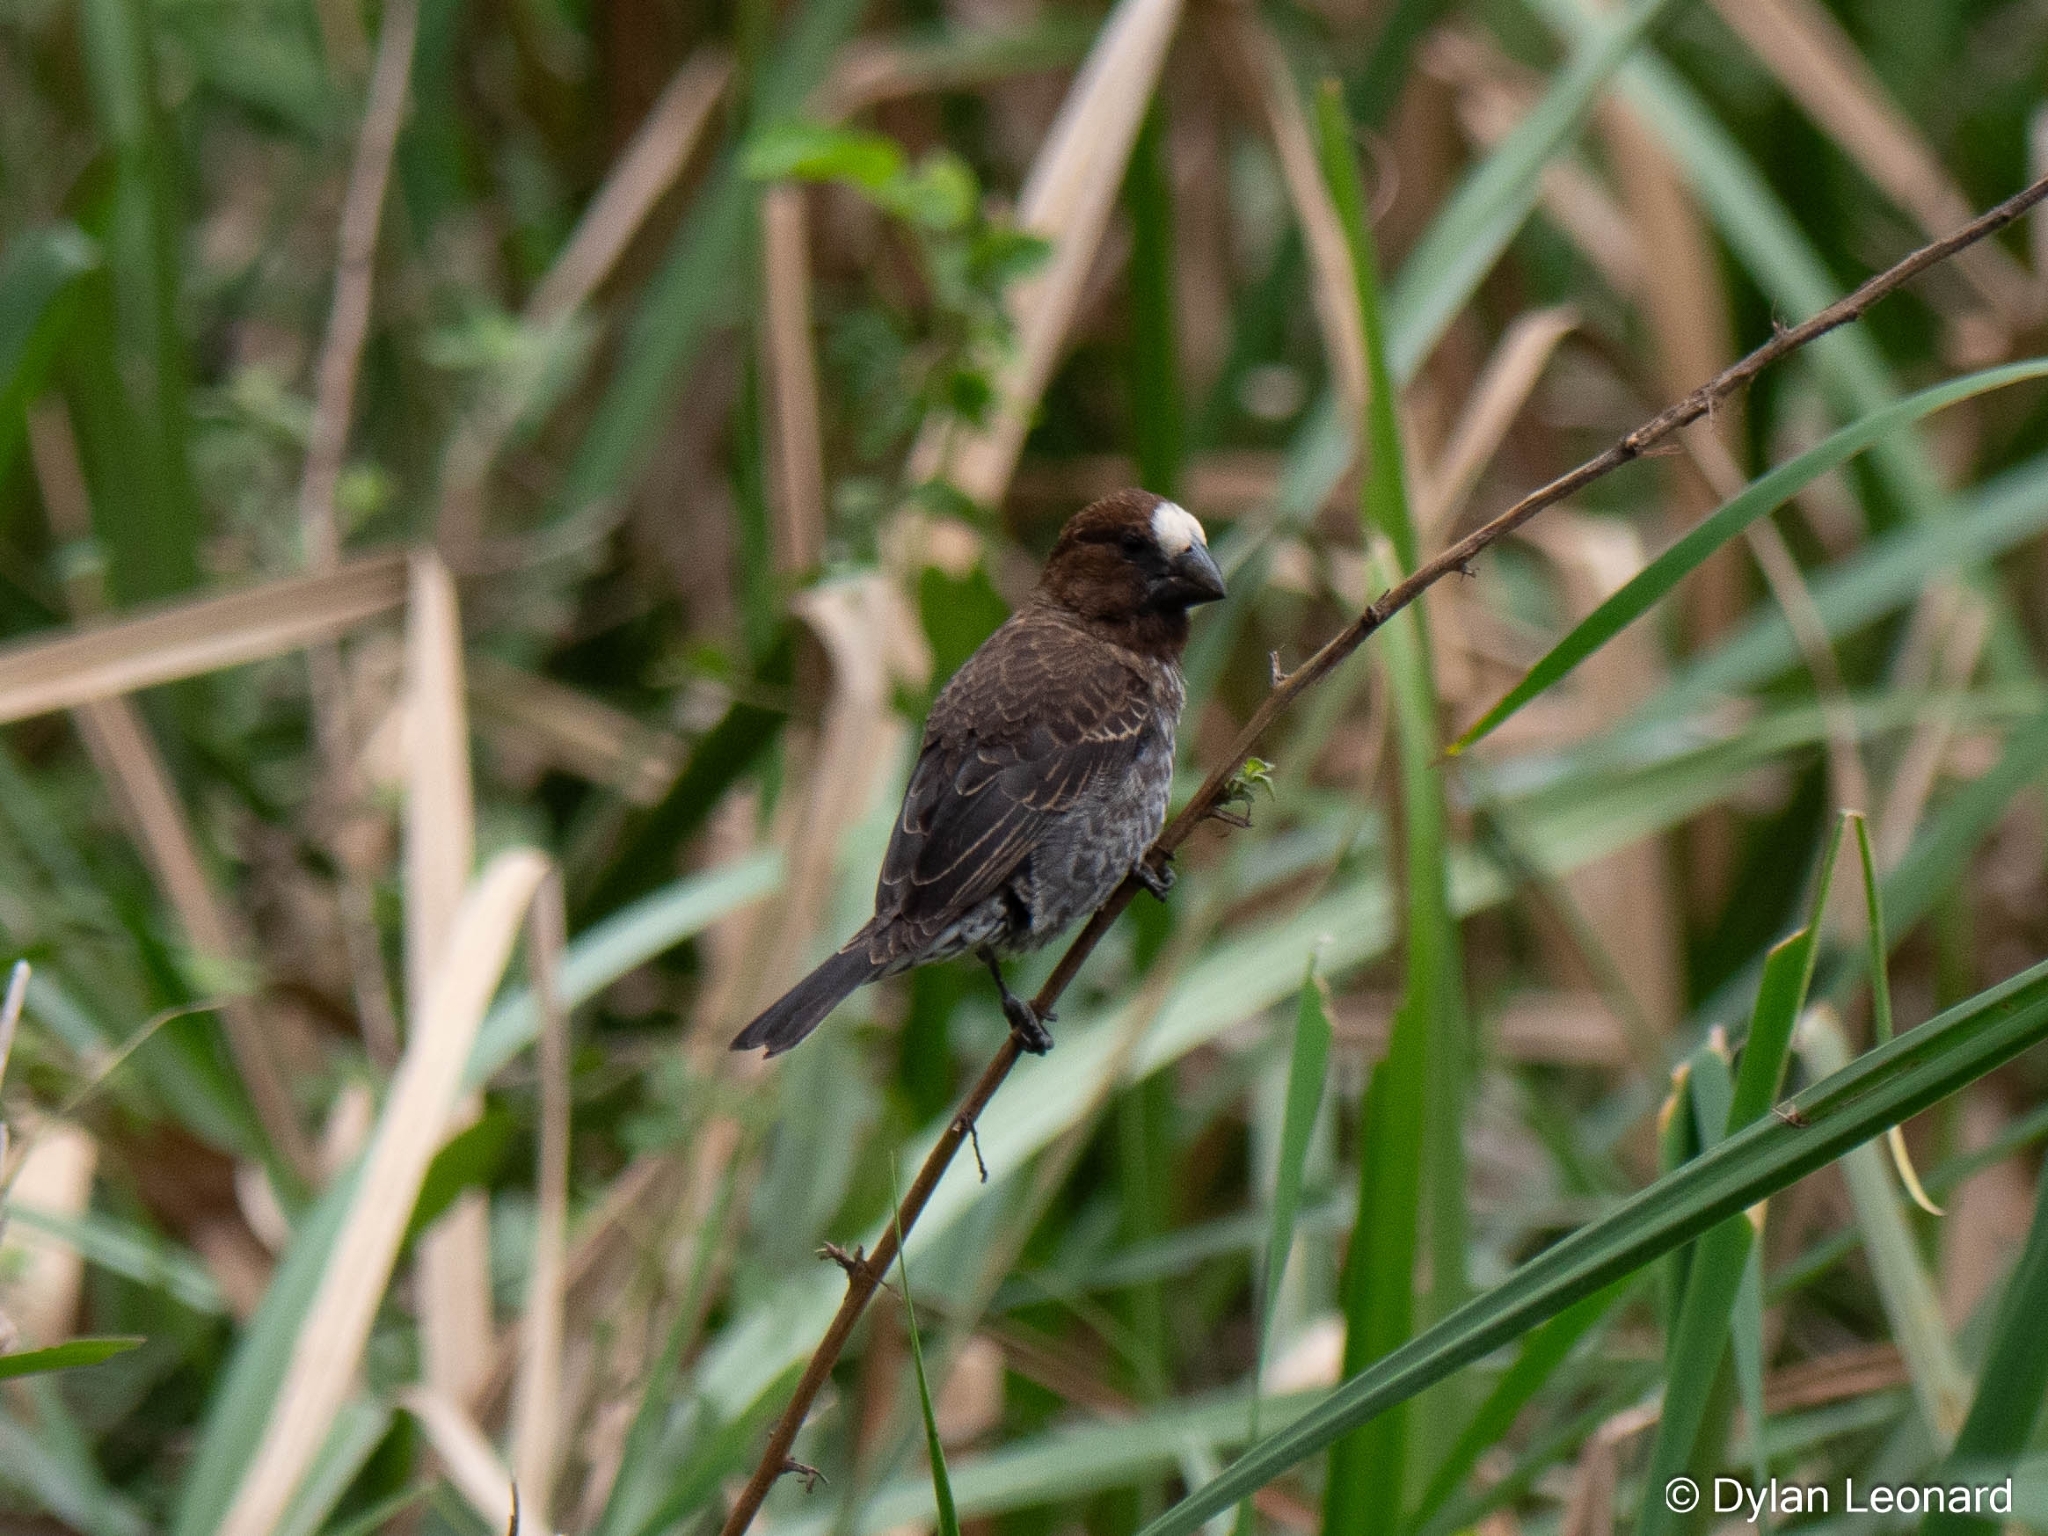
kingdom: Animalia
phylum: Chordata
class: Aves
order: Passeriformes
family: Ploceidae
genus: Amblyospiza
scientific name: Amblyospiza albifrons
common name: Thick-billed weaver
